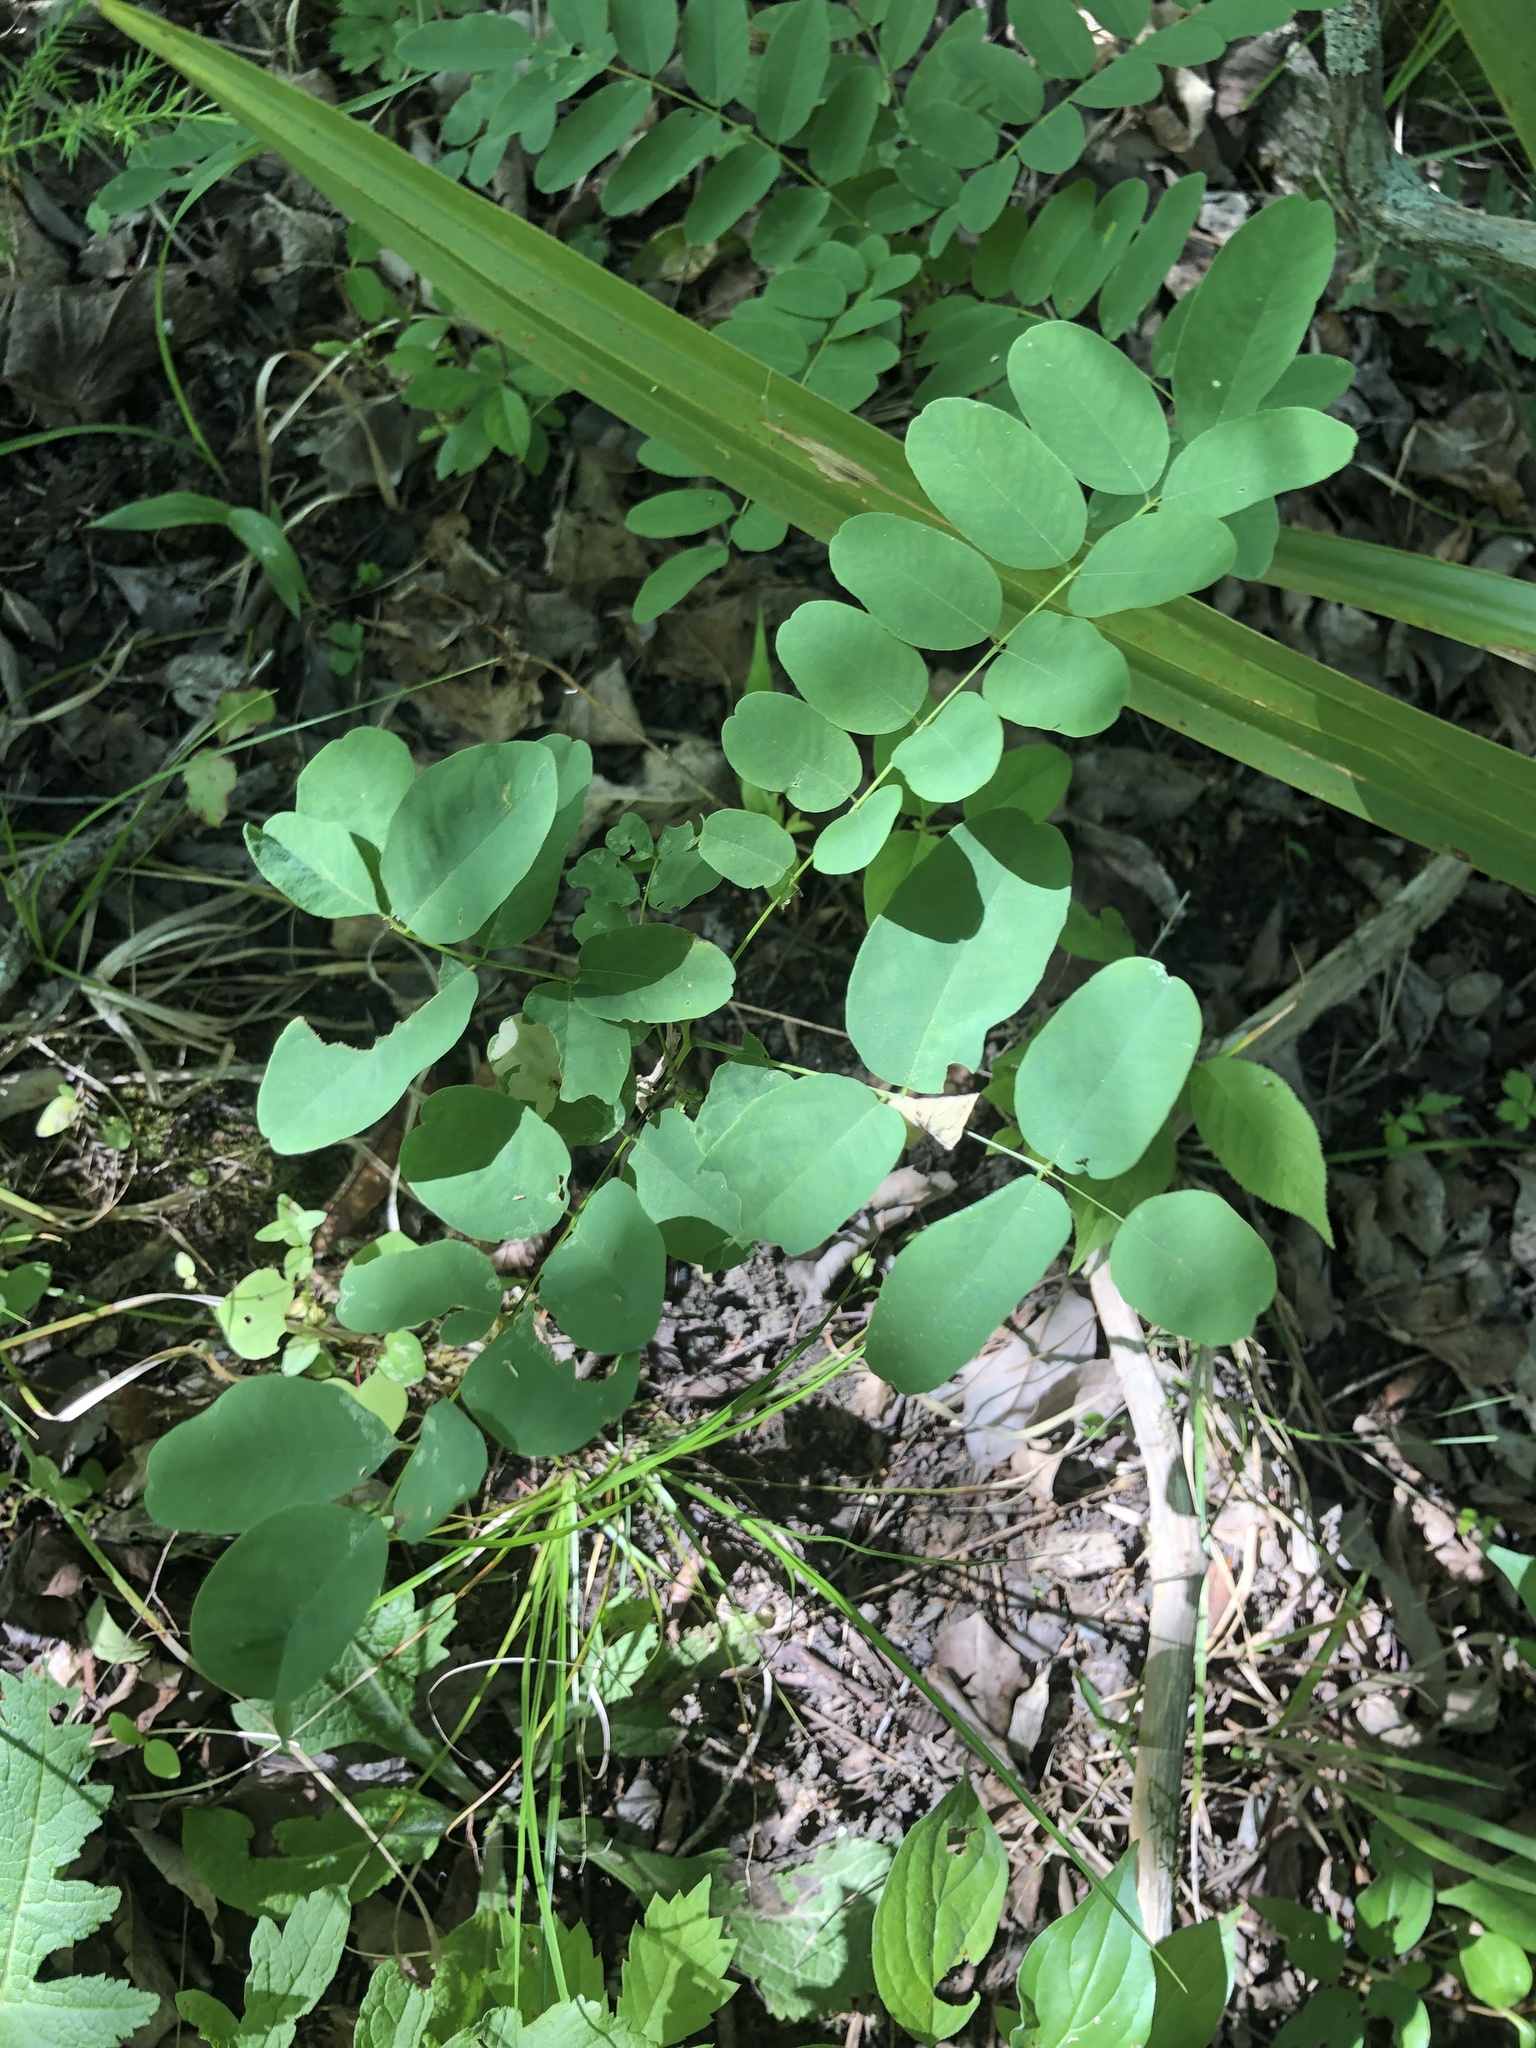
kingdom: Plantae
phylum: Tracheophyta
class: Magnoliopsida
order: Fabales
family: Fabaceae
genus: Amorpha
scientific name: Amorpha fruticosa
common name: False indigo
